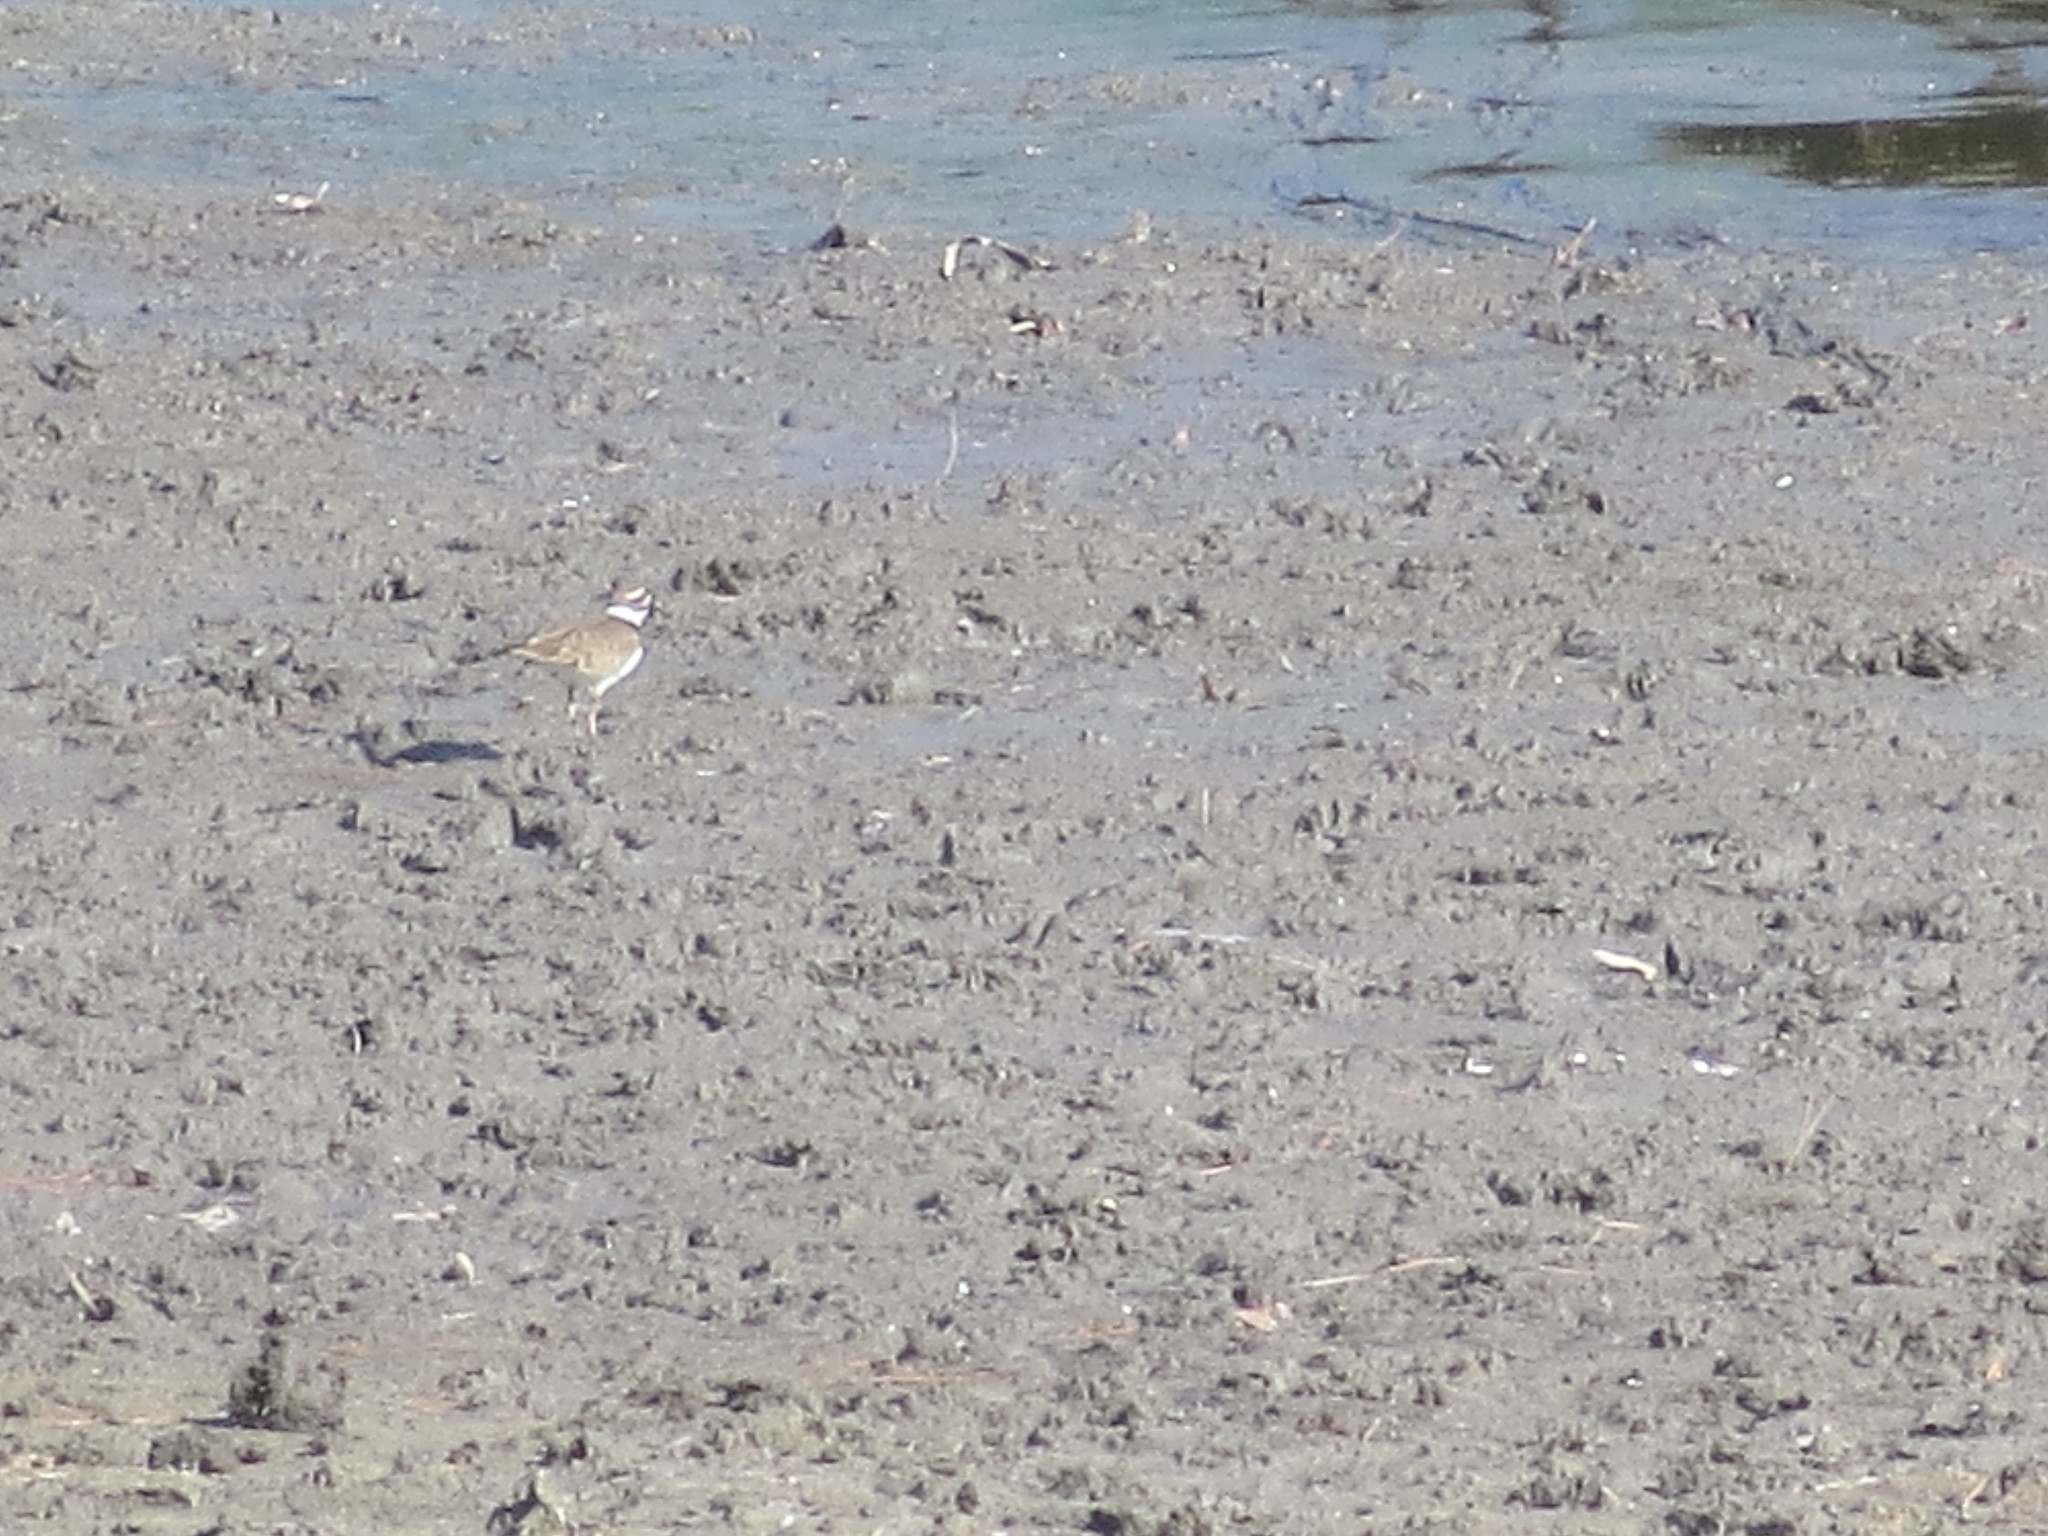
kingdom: Animalia
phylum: Chordata
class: Aves
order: Charadriiformes
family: Charadriidae
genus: Charadrius
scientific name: Charadrius vociferus
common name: Killdeer
